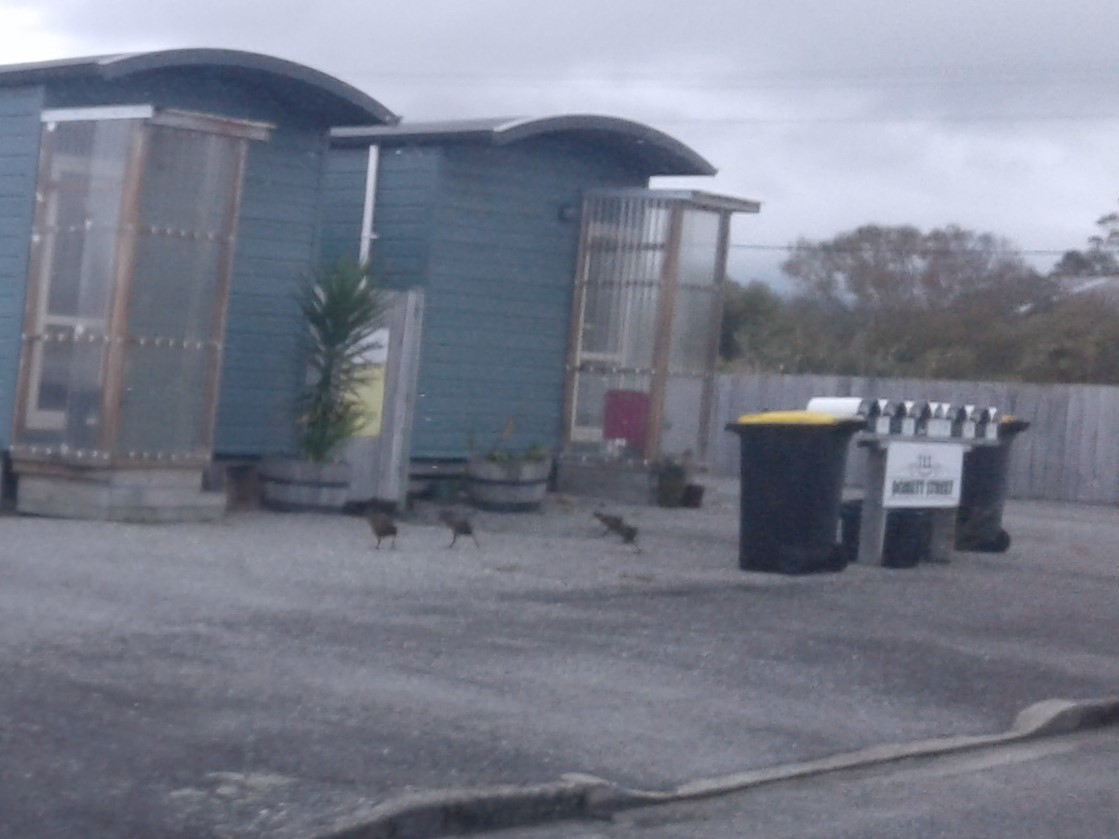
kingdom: Animalia
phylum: Chordata
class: Aves
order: Gruiformes
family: Rallidae
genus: Gallirallus
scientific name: Gallirallus australis
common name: Weka
